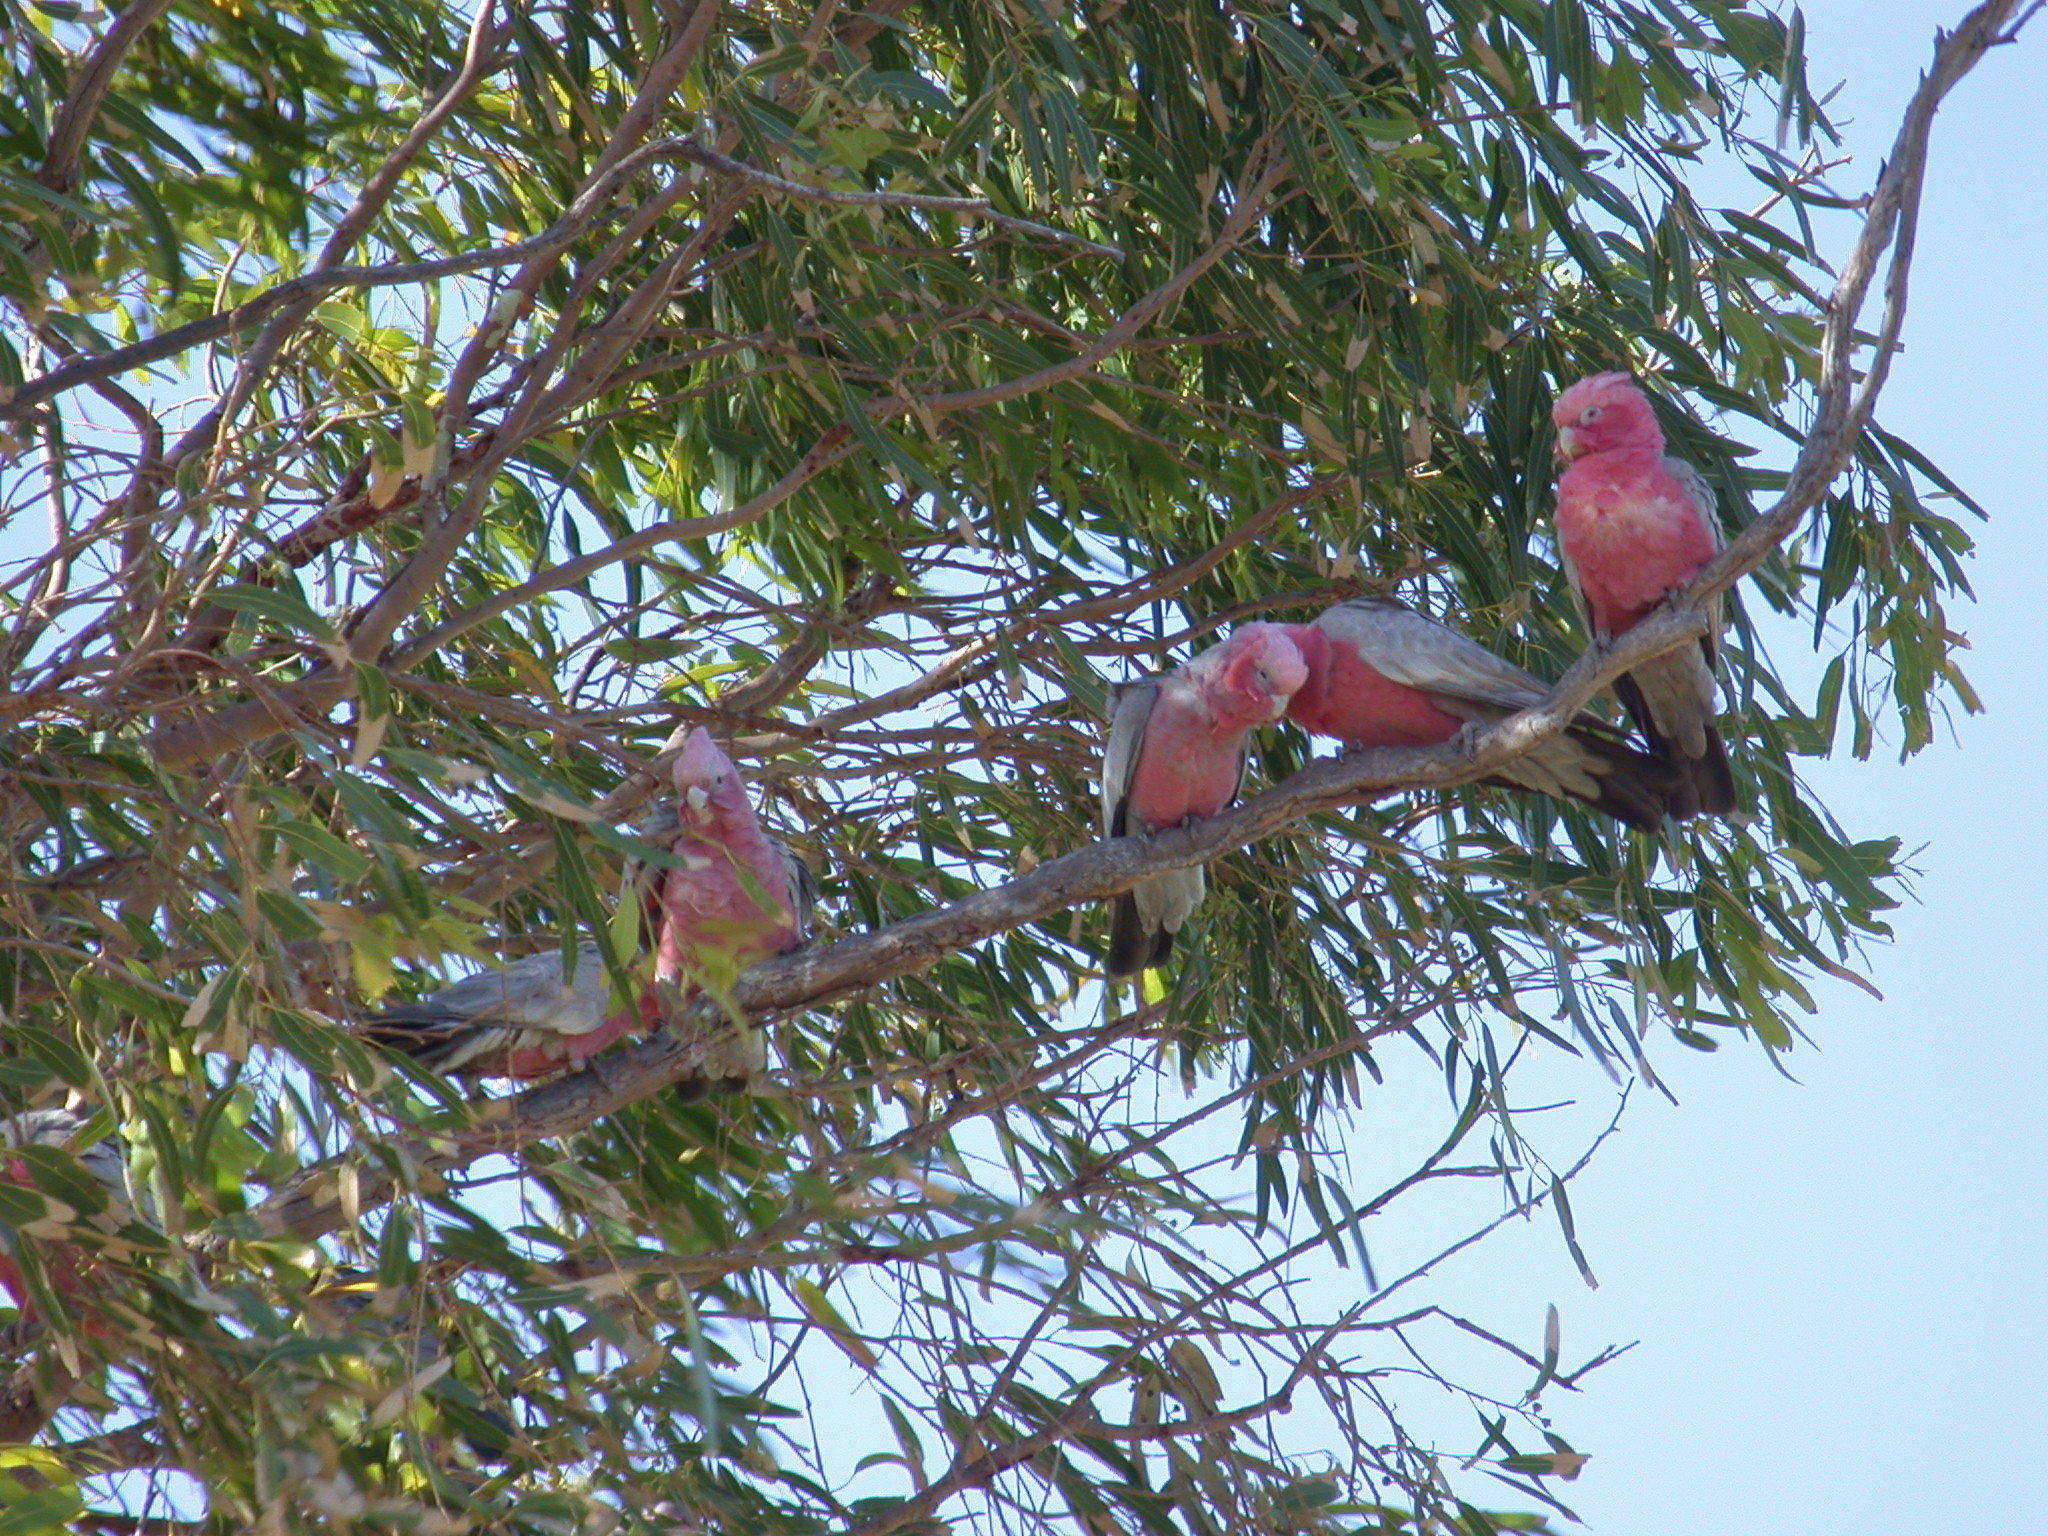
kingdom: Animalia
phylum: Chordata
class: Aves
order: Psittaciformes
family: Psittacidae
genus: Eolophus
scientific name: Eolophus roseicapilla
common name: Galah
